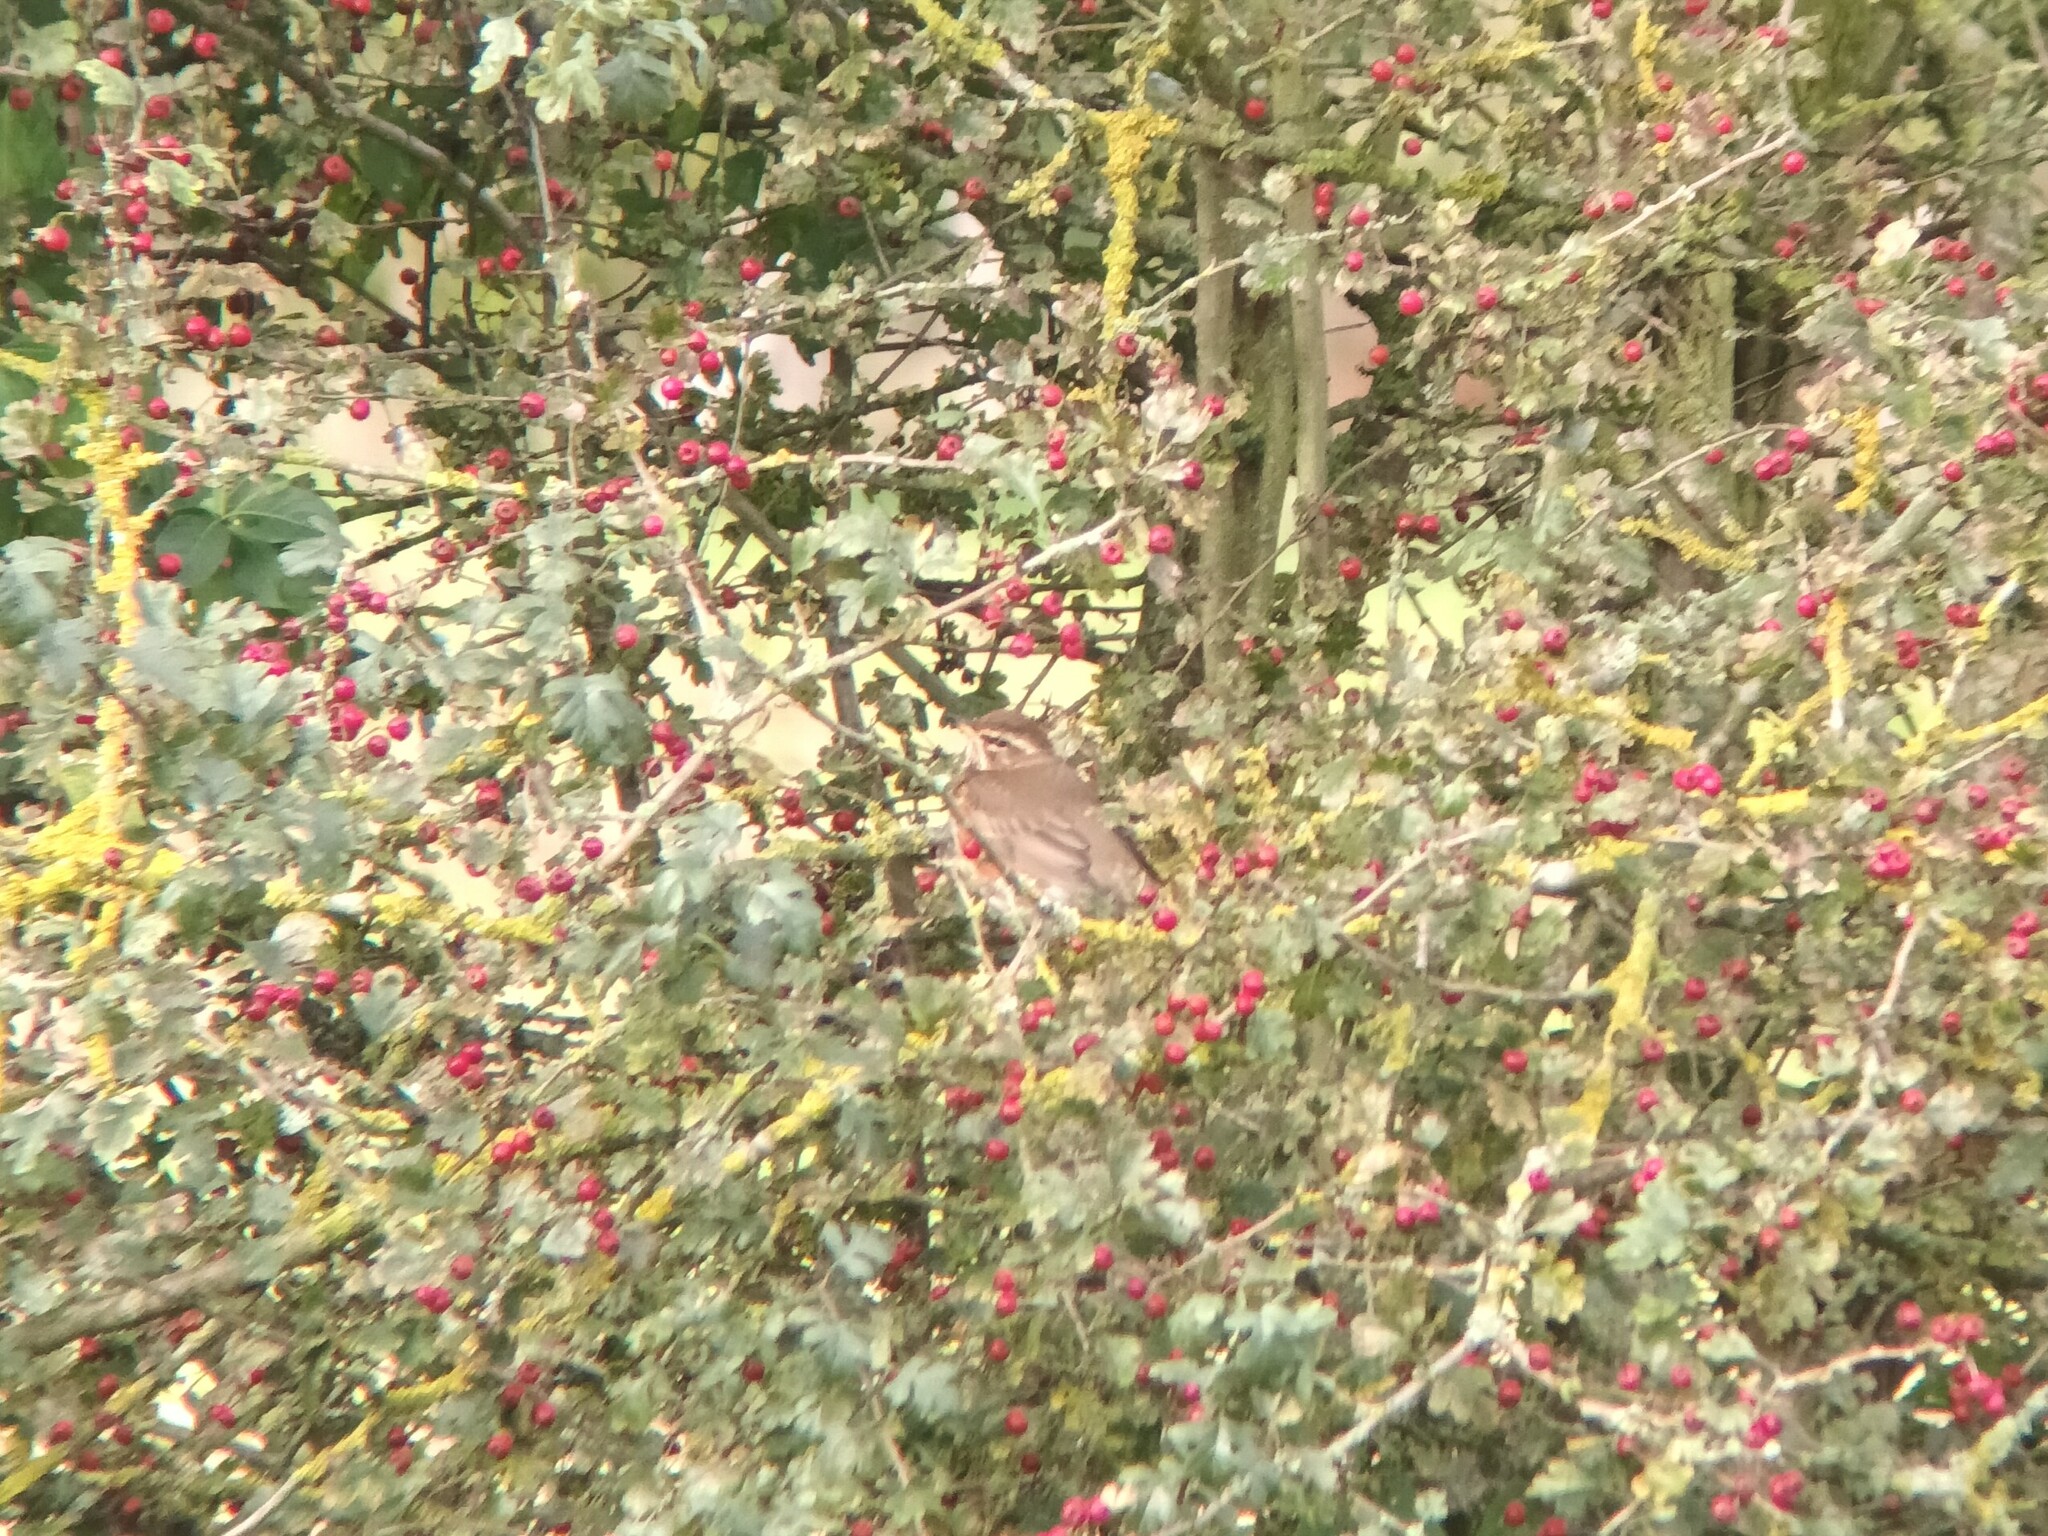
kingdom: Animalia
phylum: Chordata
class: Aves
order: Passeriformes
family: Turdidae
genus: Turdus
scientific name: Turdus iliacus
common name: Redwing
